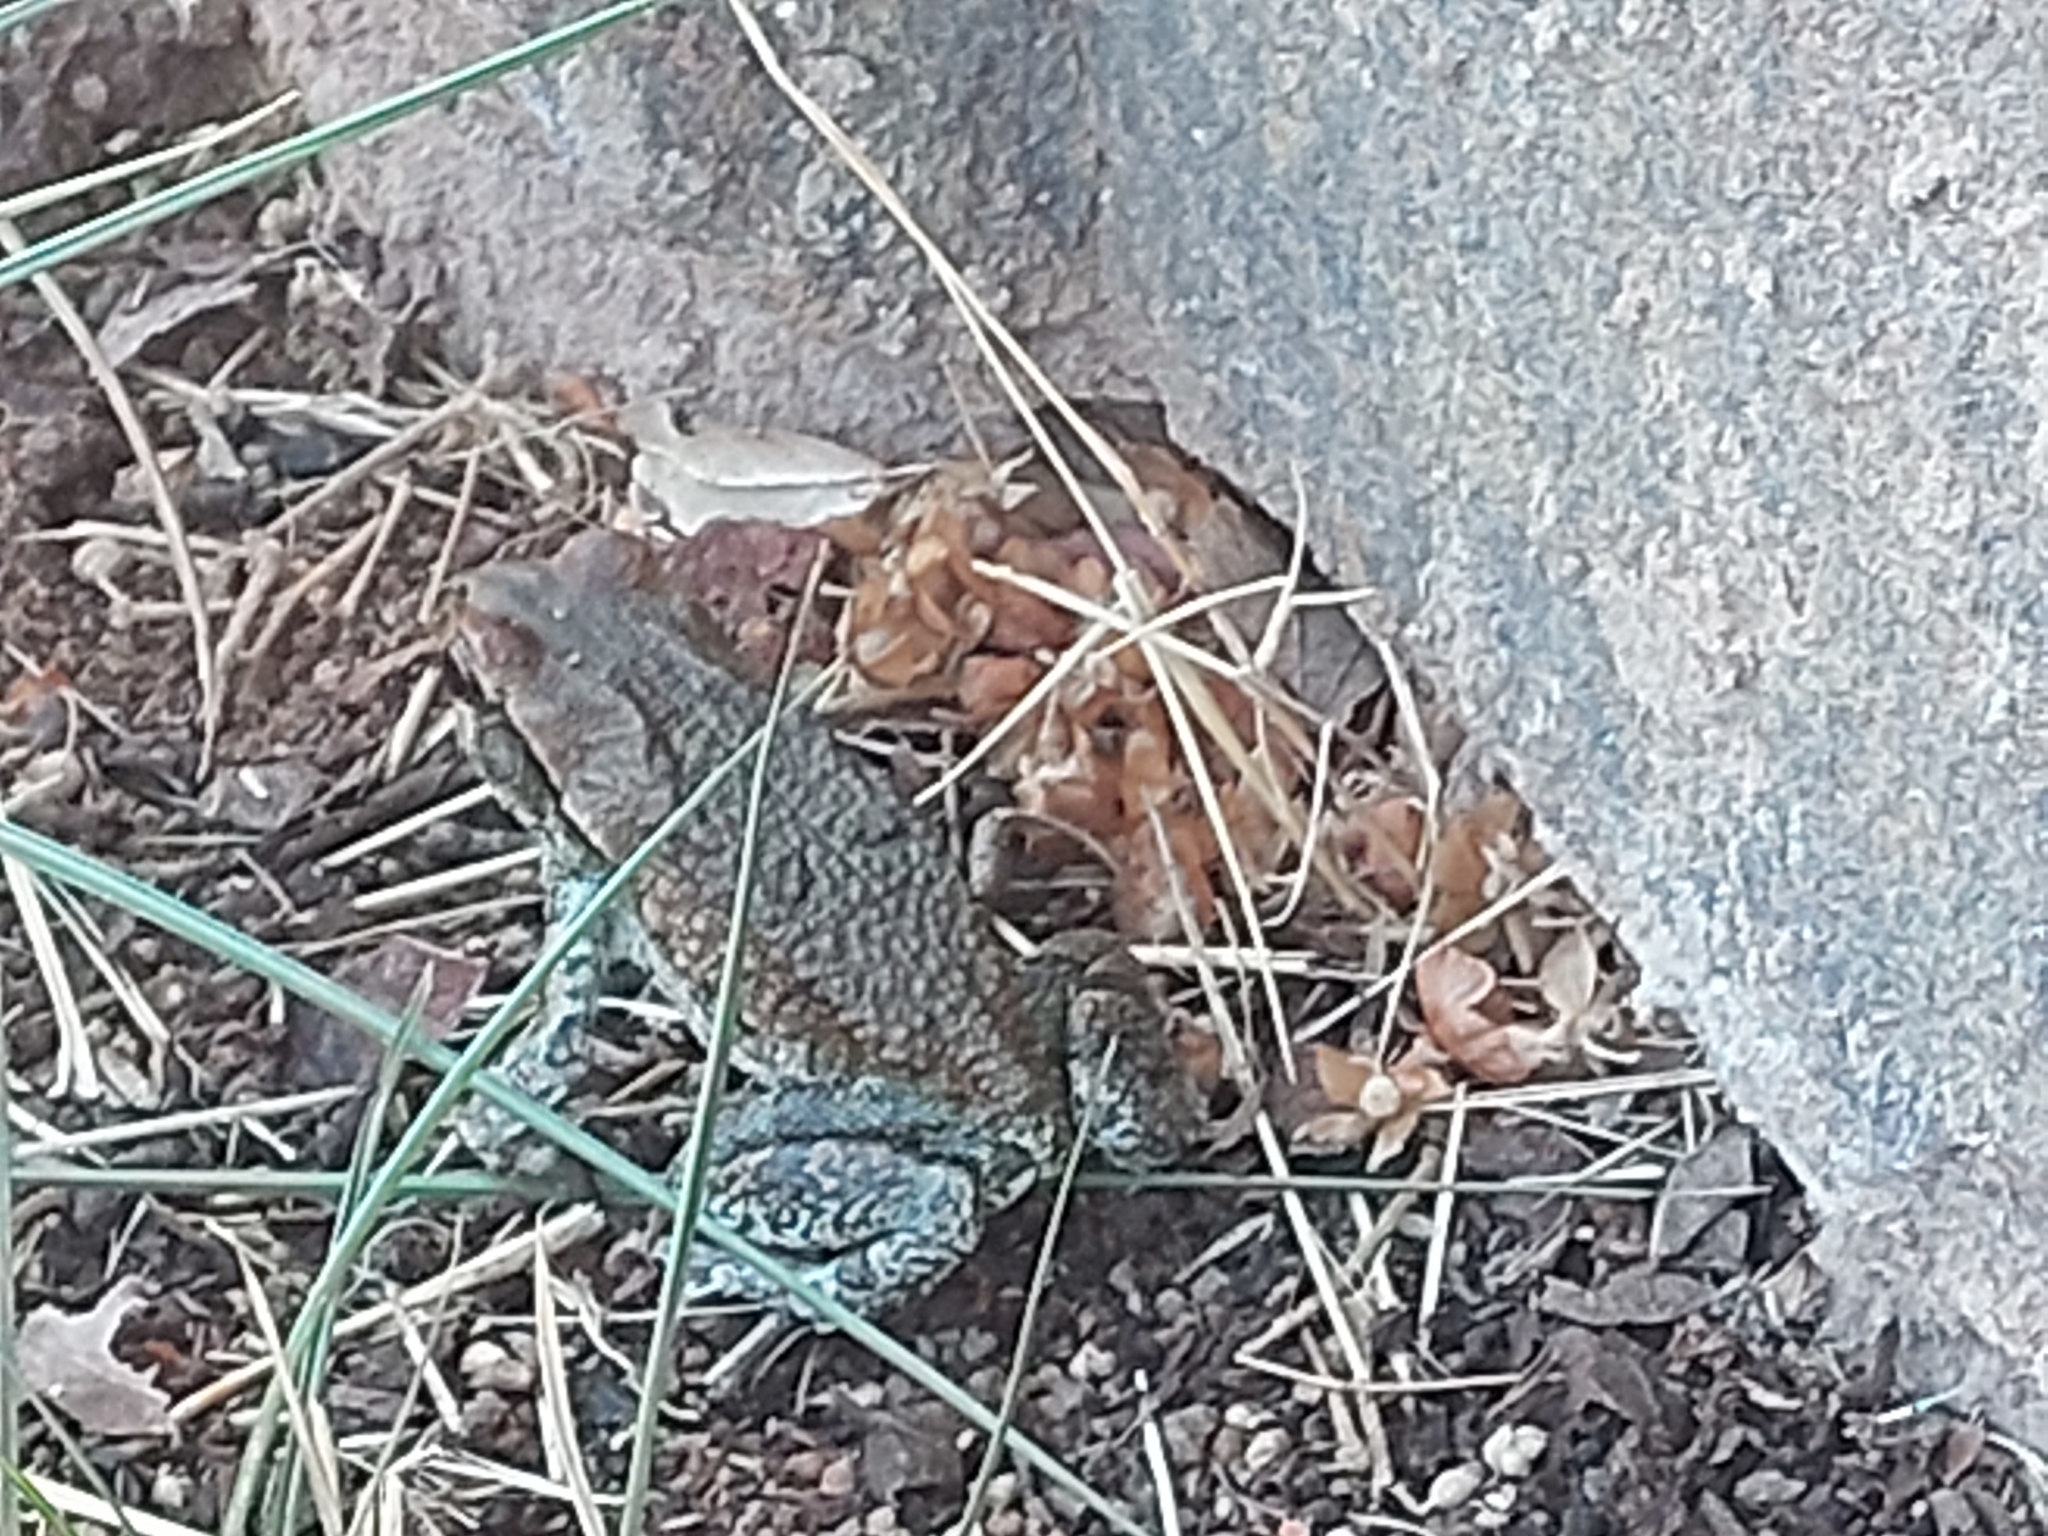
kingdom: Animalia
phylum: Chordata
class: Amphibia
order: Anura
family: Bufonidae
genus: Schismaderma
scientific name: Schismaderma carens
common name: African split-skin toad
